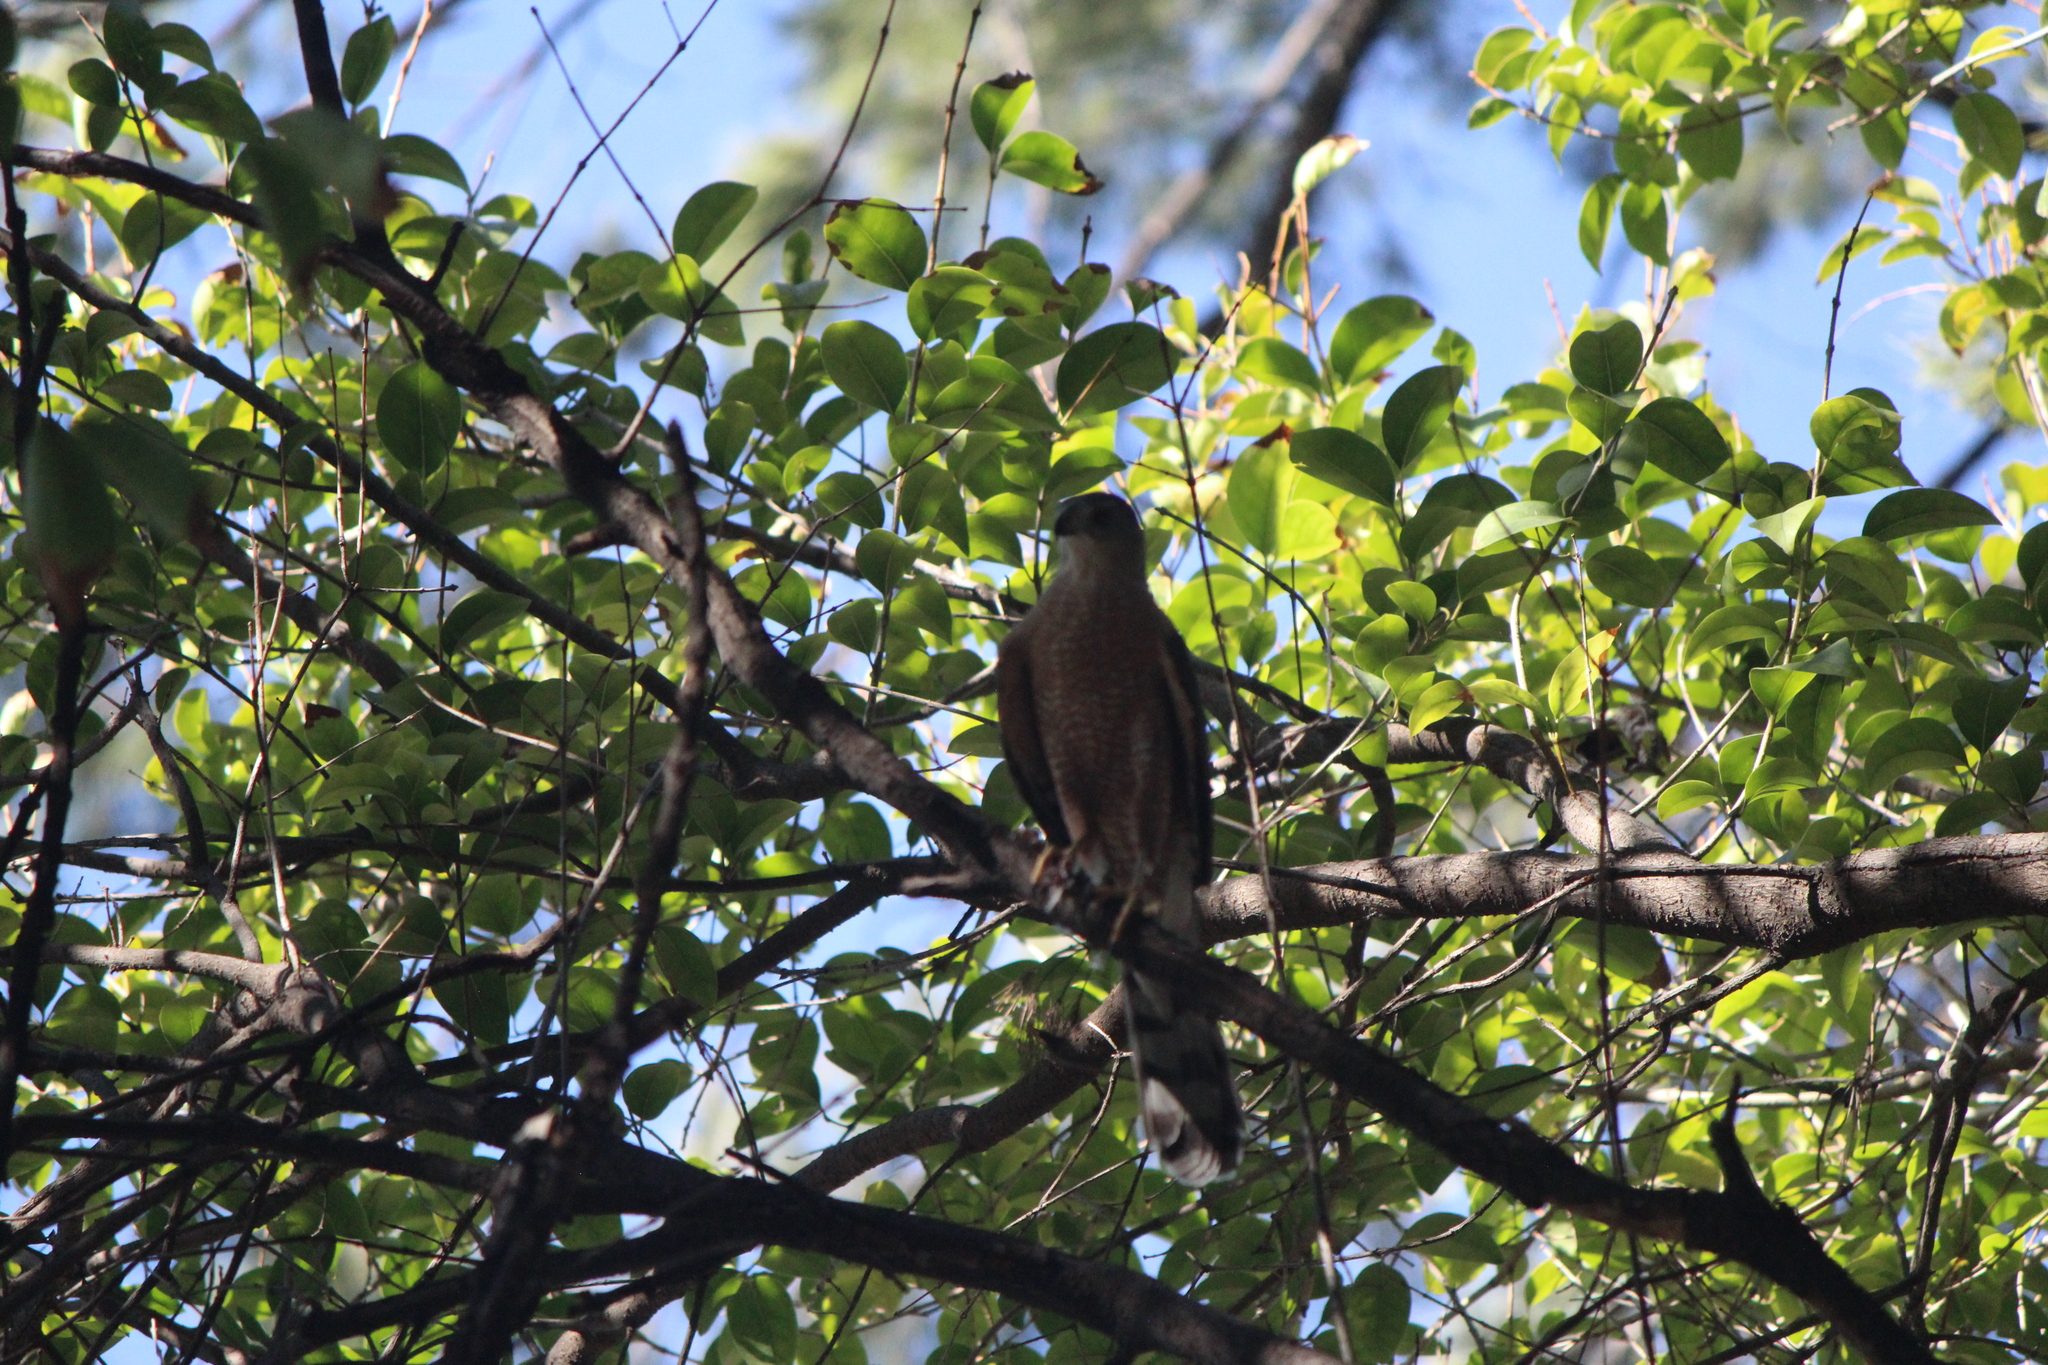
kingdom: Animalia
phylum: Chordata
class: Aves
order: Accipitriformes
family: Accipitridae
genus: Accipiter
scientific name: Accipiter cooperii
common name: Cooper's hawk
